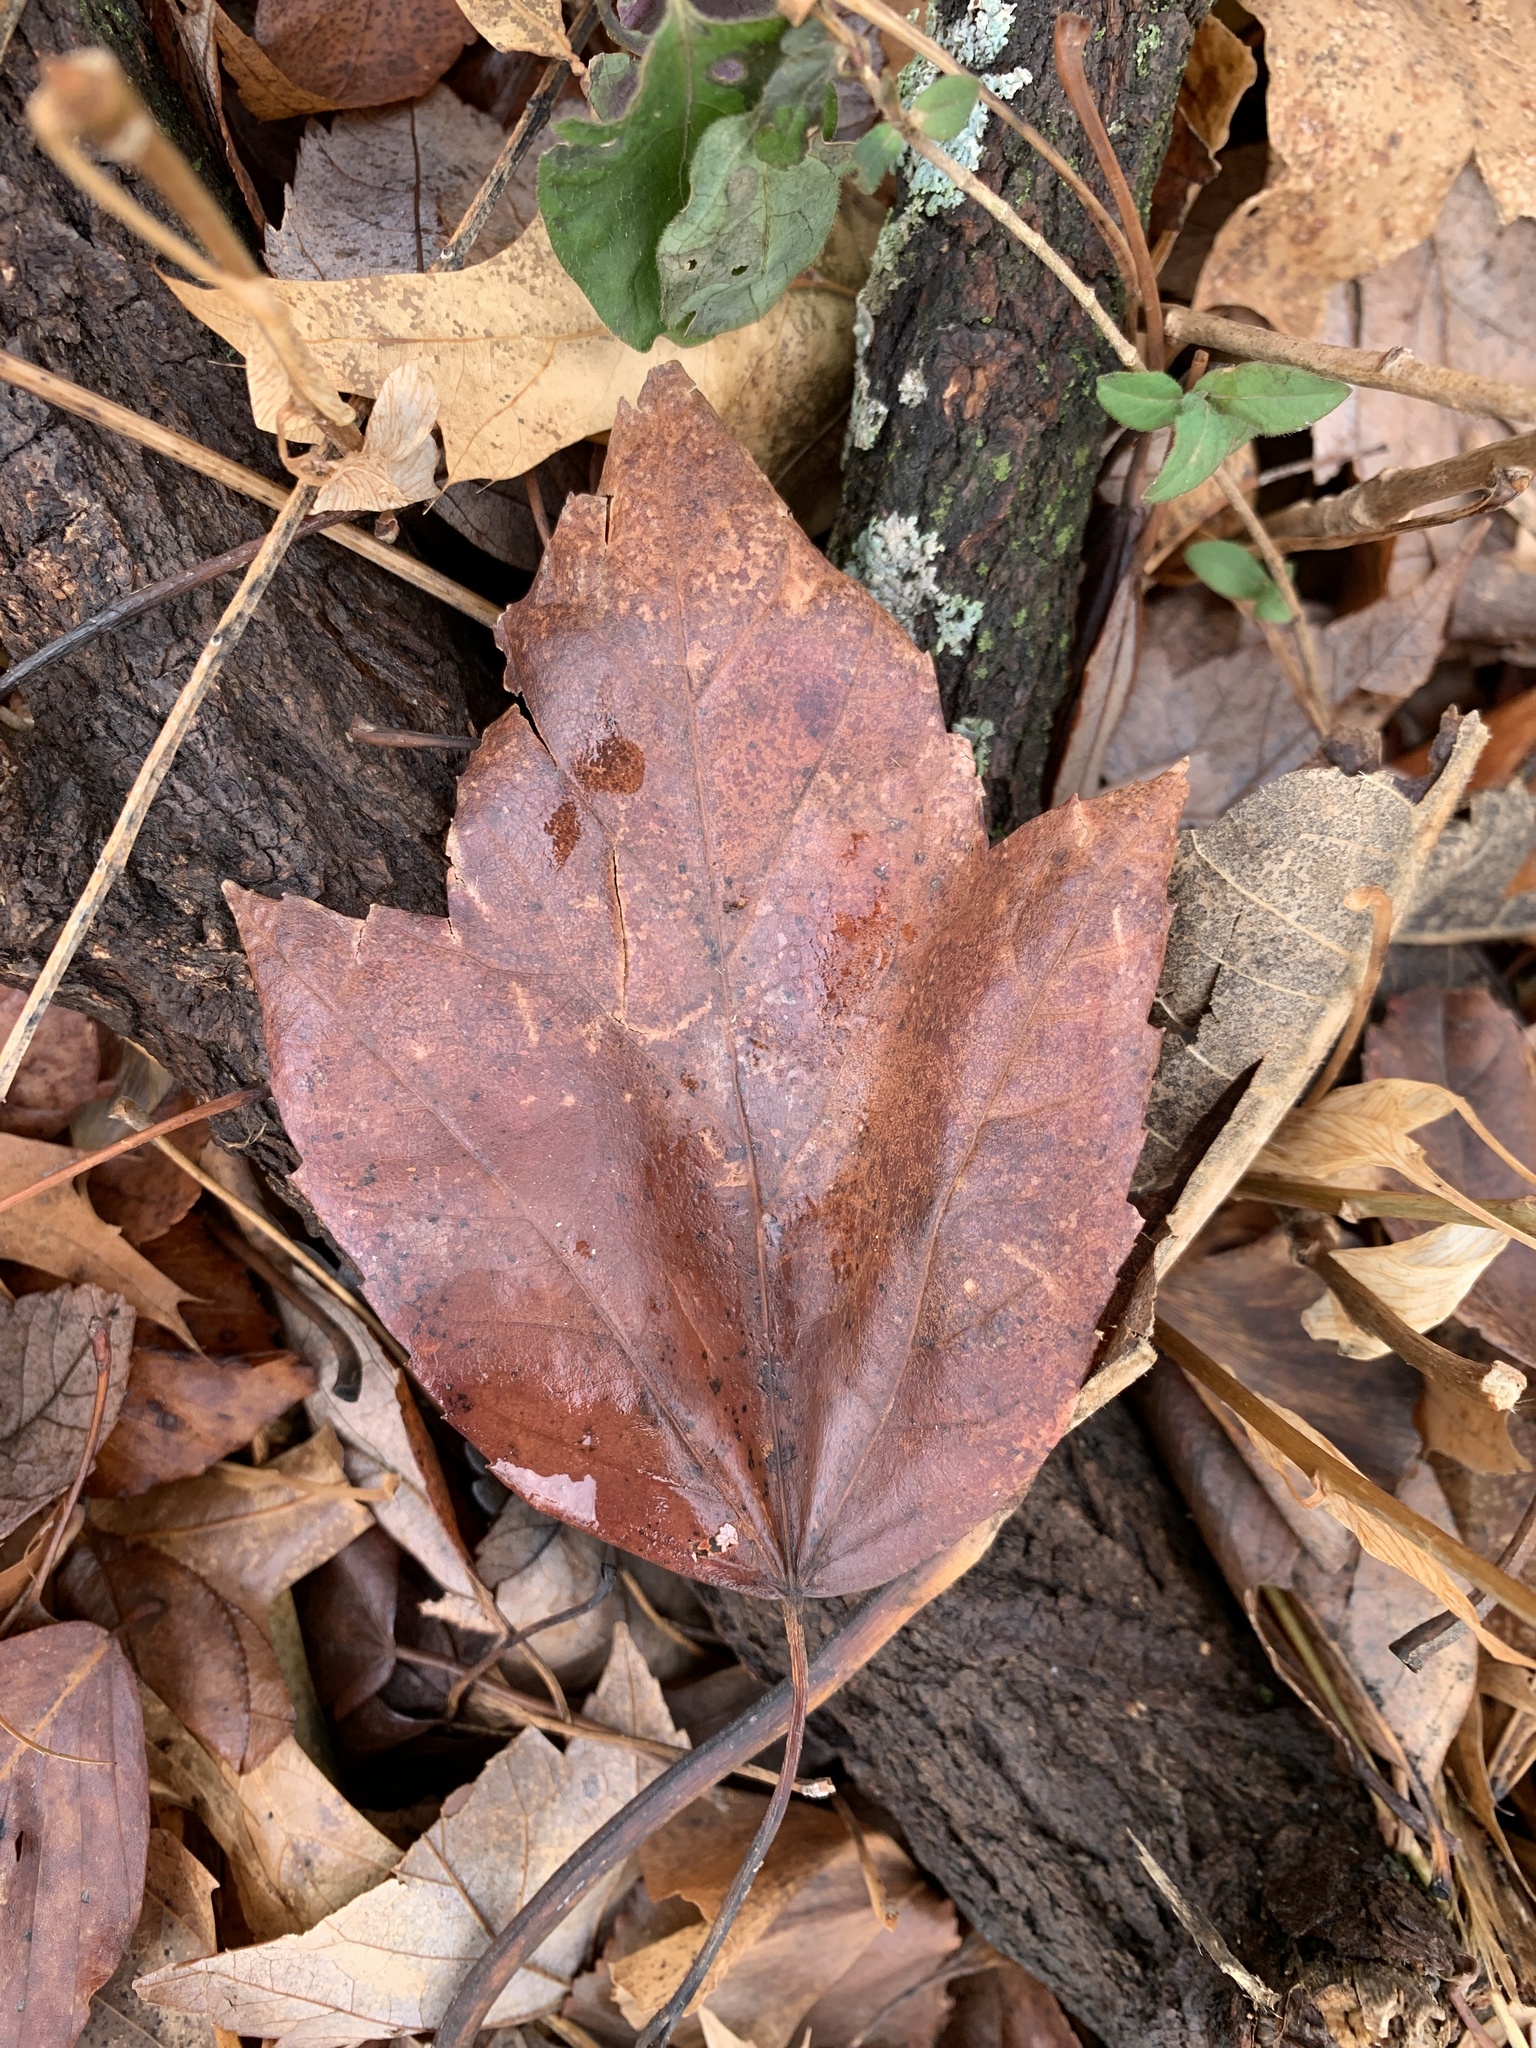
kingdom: Plantae
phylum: Tracheophyta
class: Magnoliopsida
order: Sapindales
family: Sapindaceae
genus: Acer
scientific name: Acer rubrum
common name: Red maple
